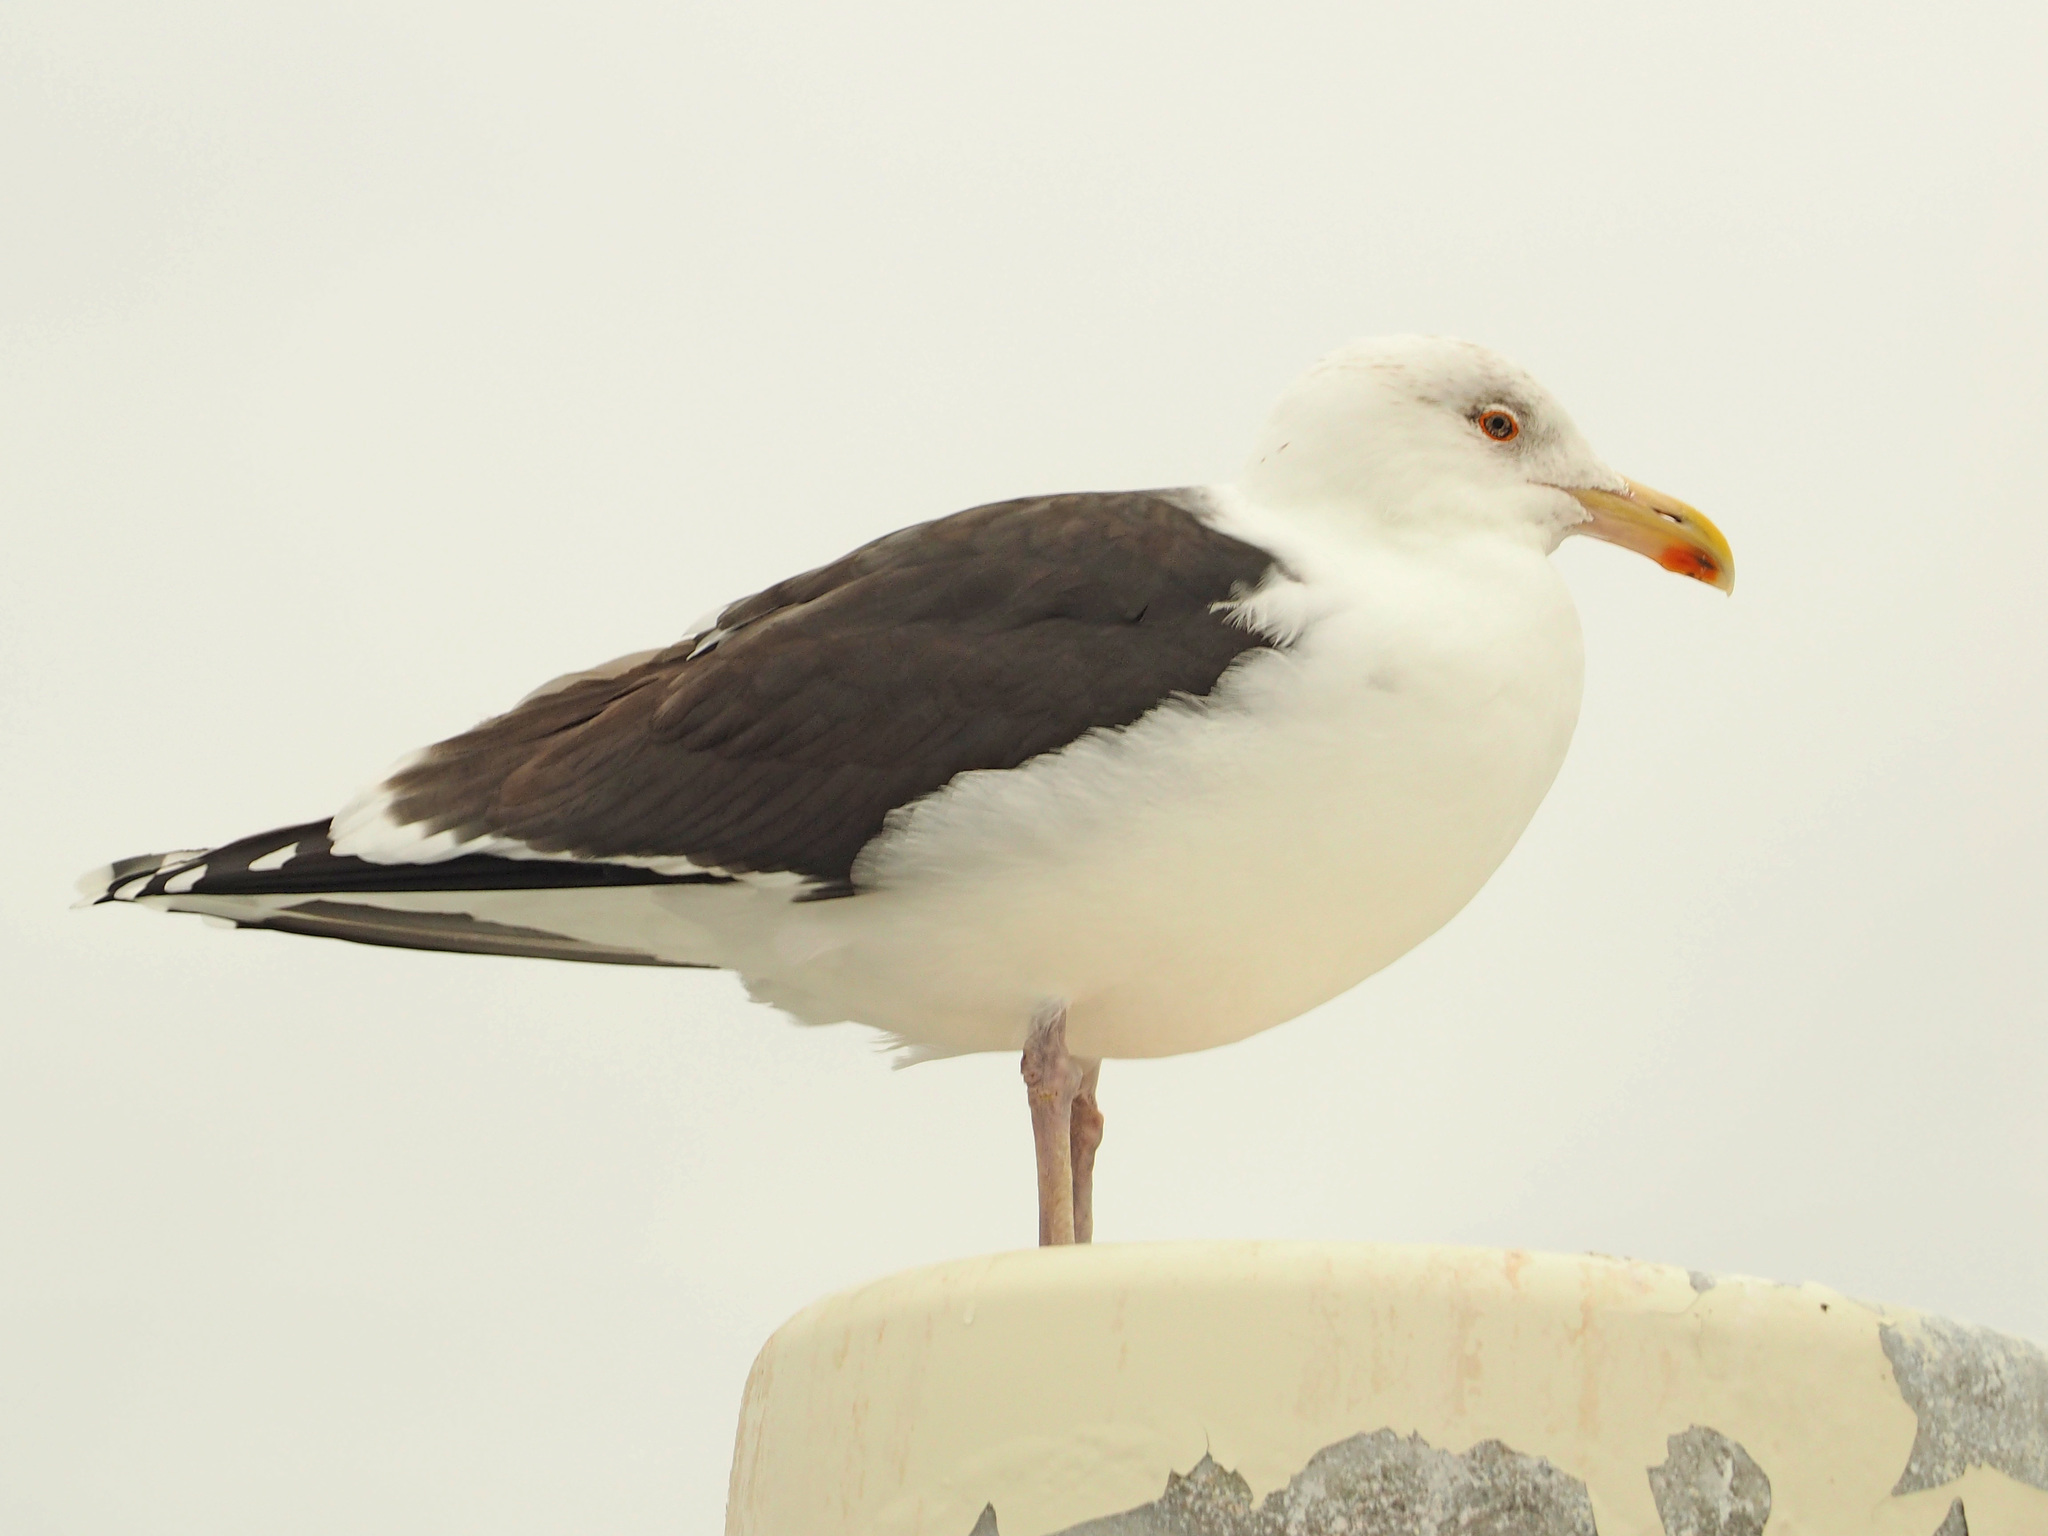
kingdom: Animalia
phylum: Chordata
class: Aves
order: Charadriiformes
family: Laridae
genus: Larus
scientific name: Larus marinus
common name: Great black-backed gull
